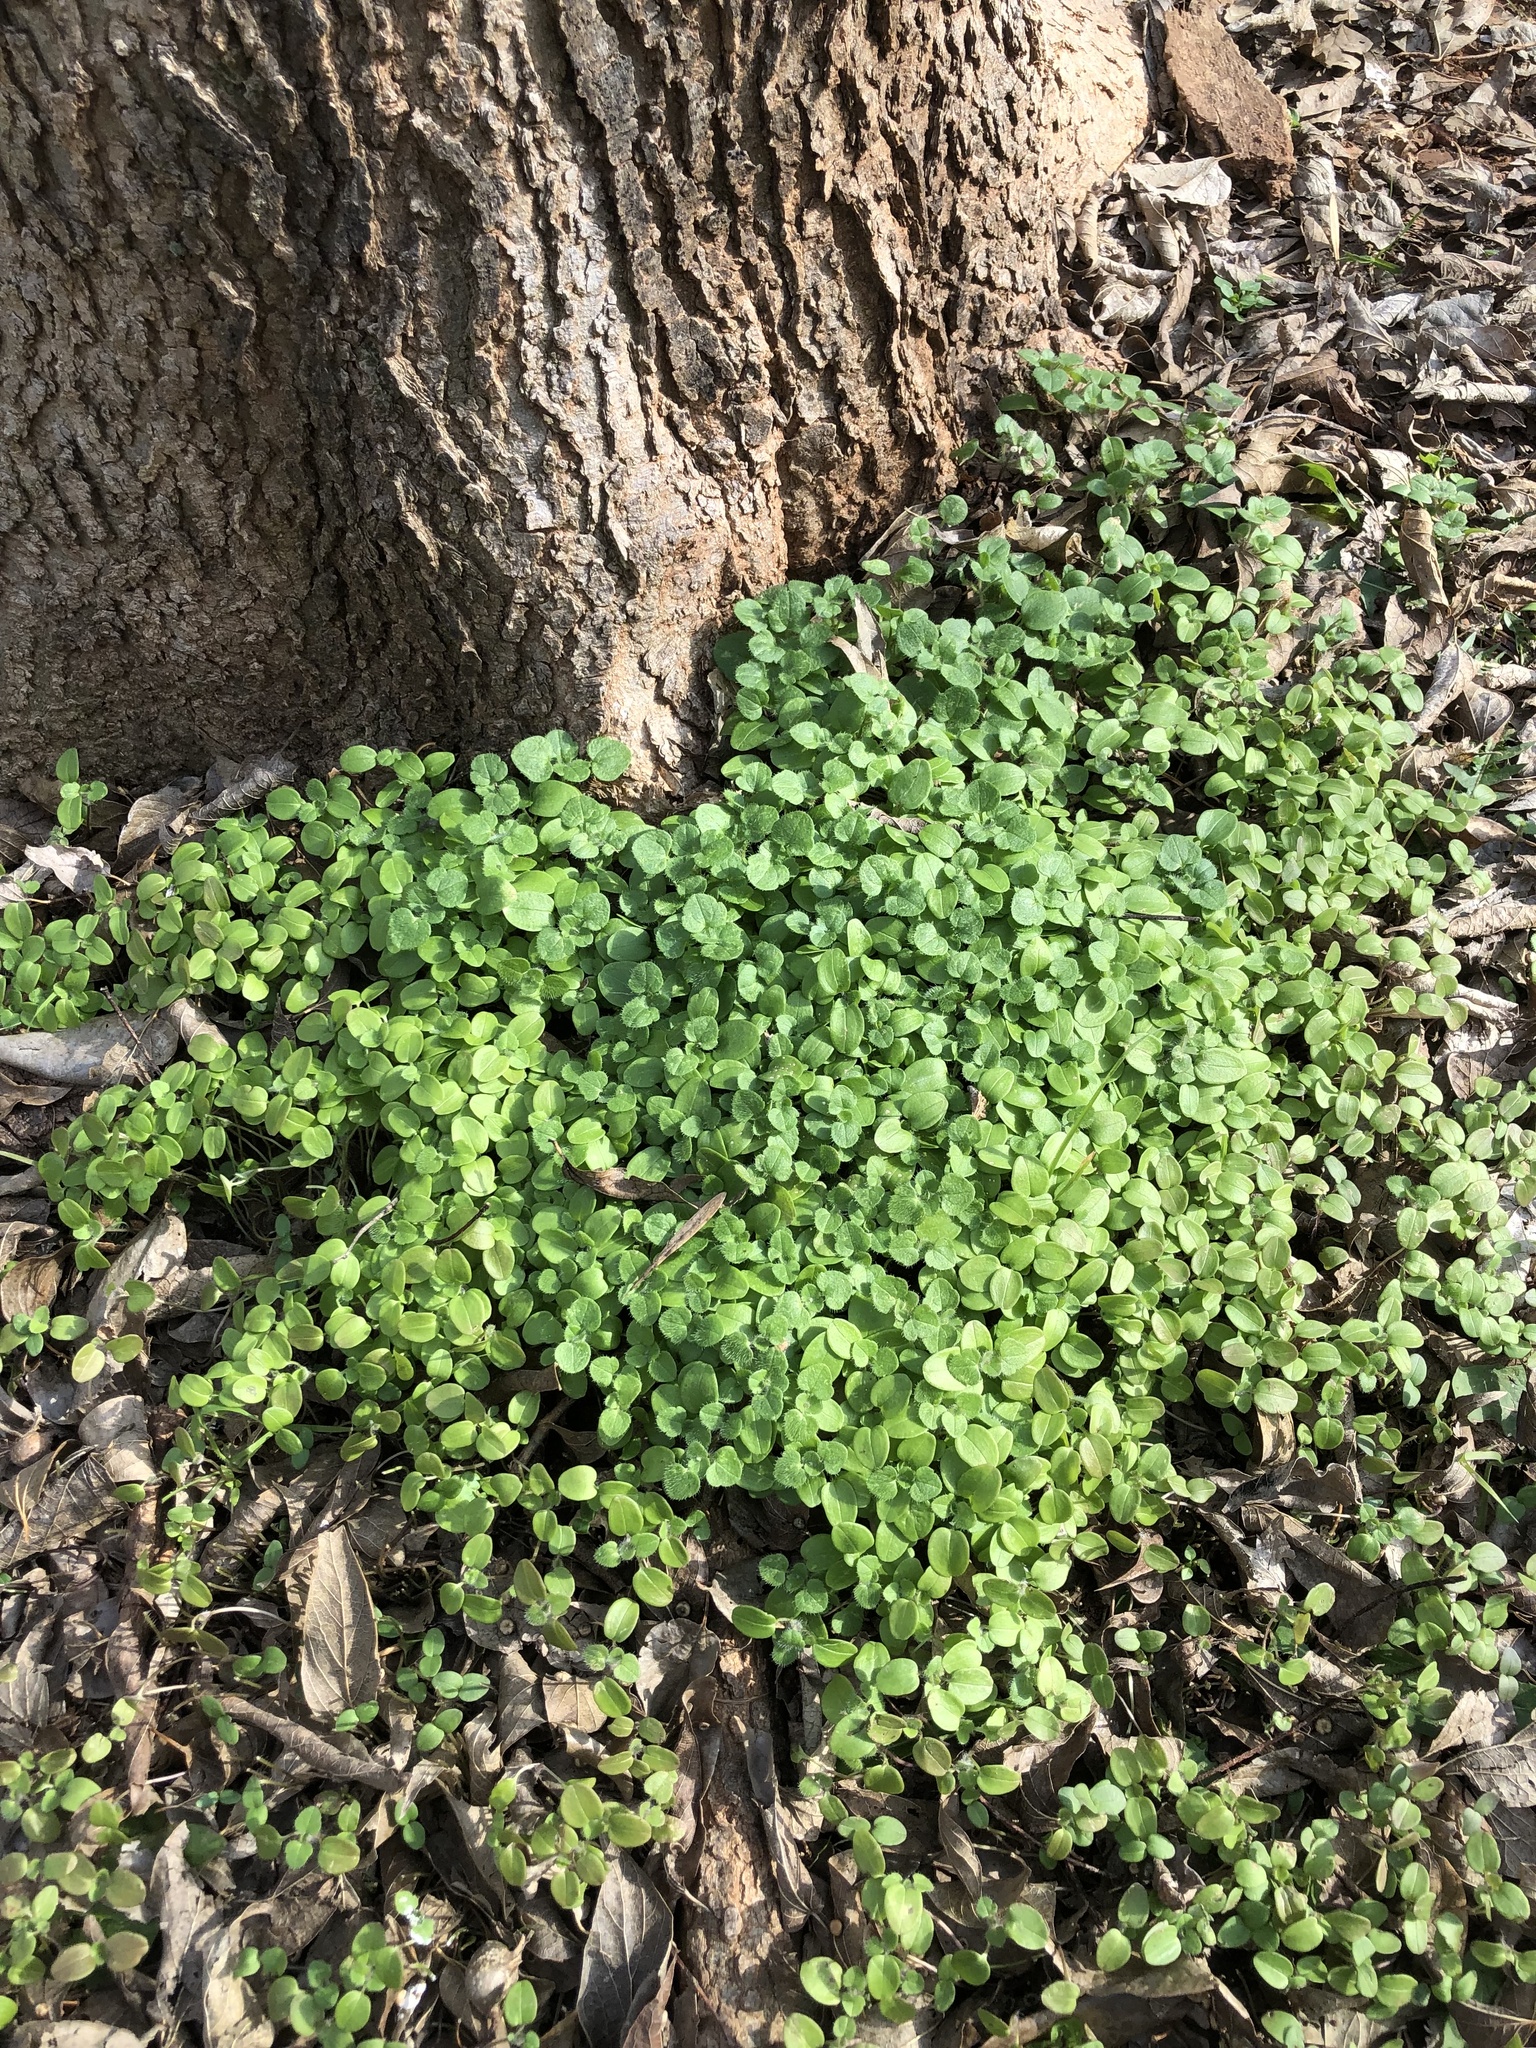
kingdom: Plantae
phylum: Tracheophyta
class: Magnoliopsida
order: Lamiales
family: Plantaginaceae
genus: Veronica
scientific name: Veronica hederifolia
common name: Ivy-leaved speedwell
